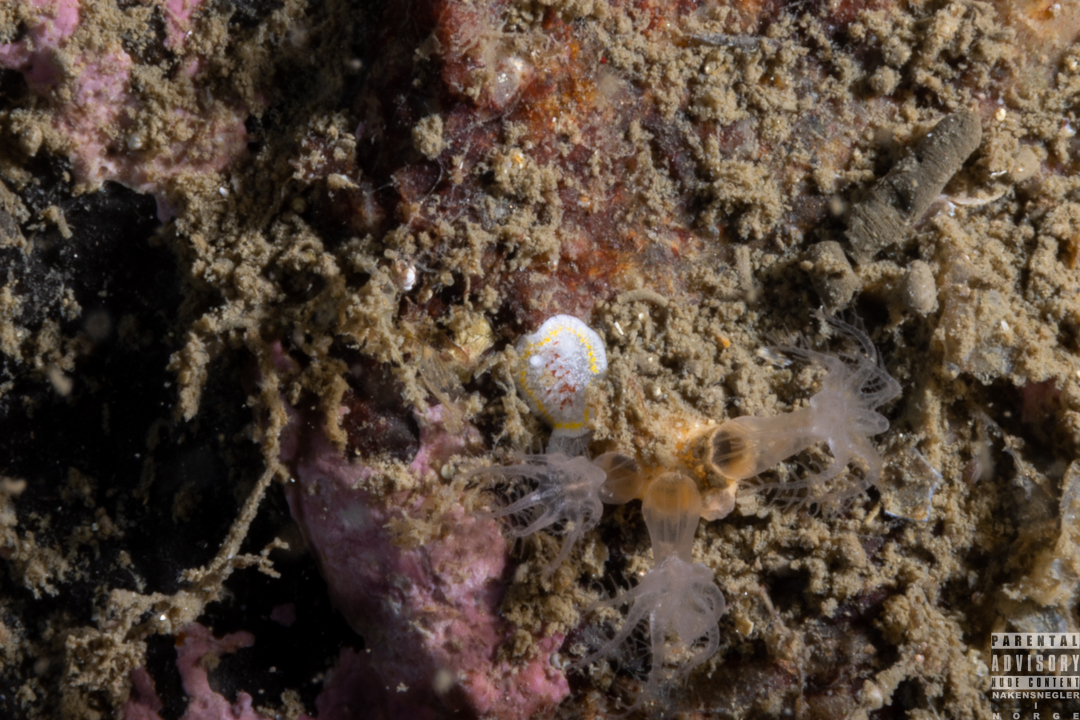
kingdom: Animalia
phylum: Mollusca
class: Gastropoda
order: Nudibranchia
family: Calycidorididae
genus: Diaphorodoris
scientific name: Diaphorodoris luteocincta
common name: Fried egg nudibranch
